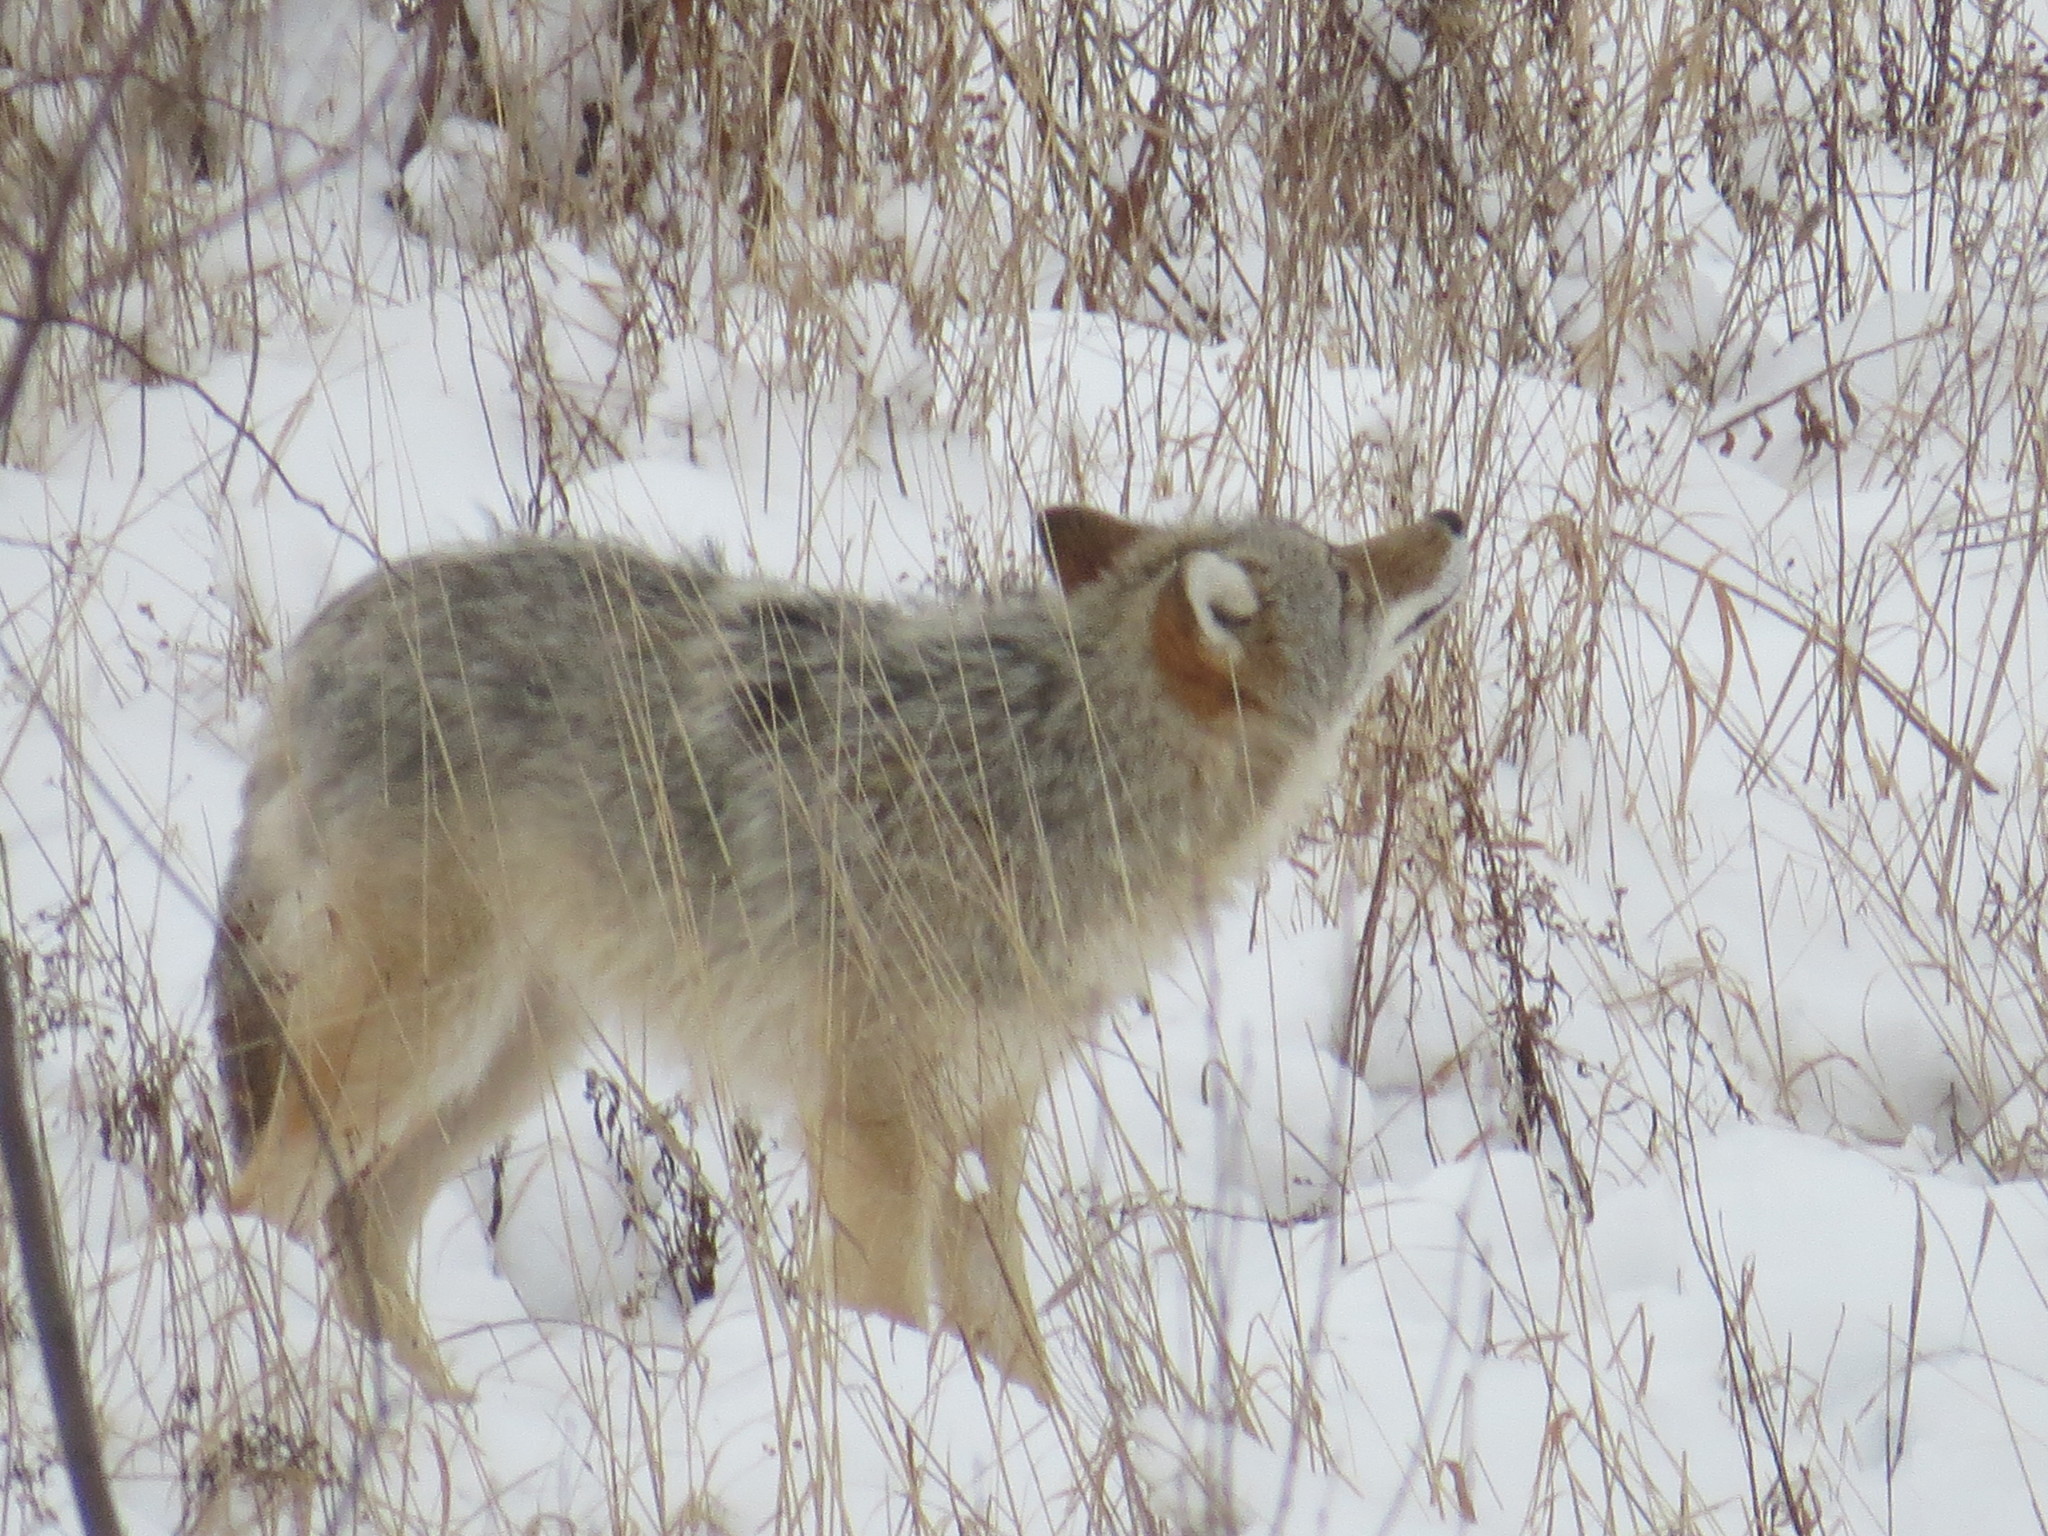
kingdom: Animalia
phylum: Chordata
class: Mammalia
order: Carnivora
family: Canidae
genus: Canis
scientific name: Canis latrans
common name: Coyote
